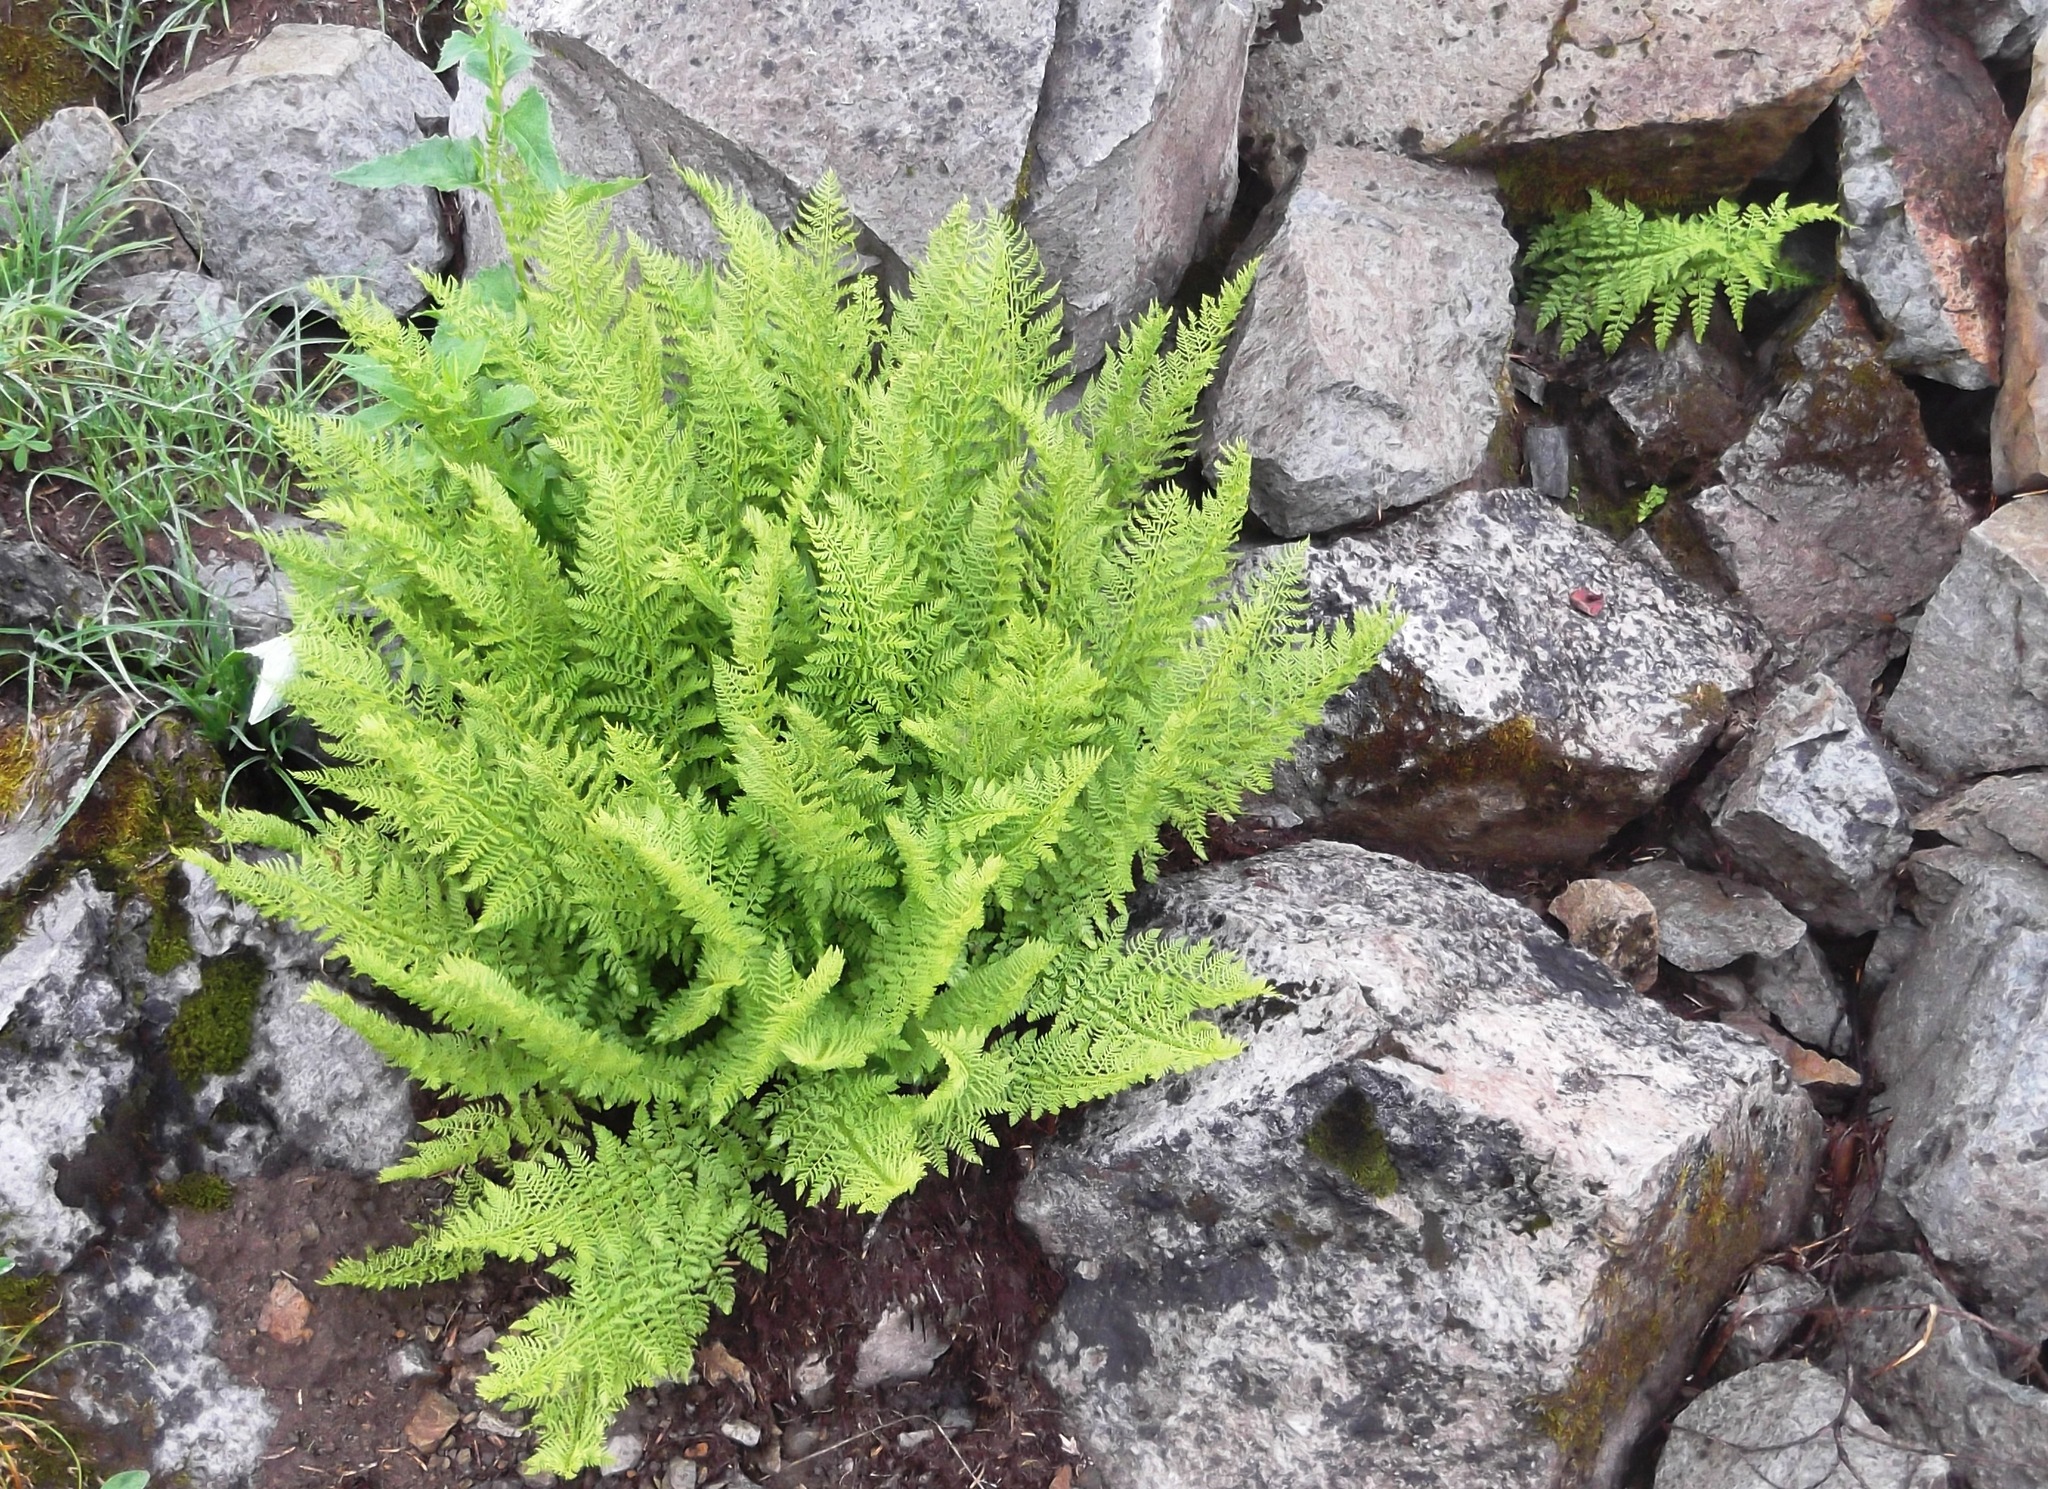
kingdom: Plantae
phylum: Tracheophyta
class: Polypodiopsida
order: Polypodiales
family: Athyriaceae
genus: Athyrium
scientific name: Athyrium americanum
